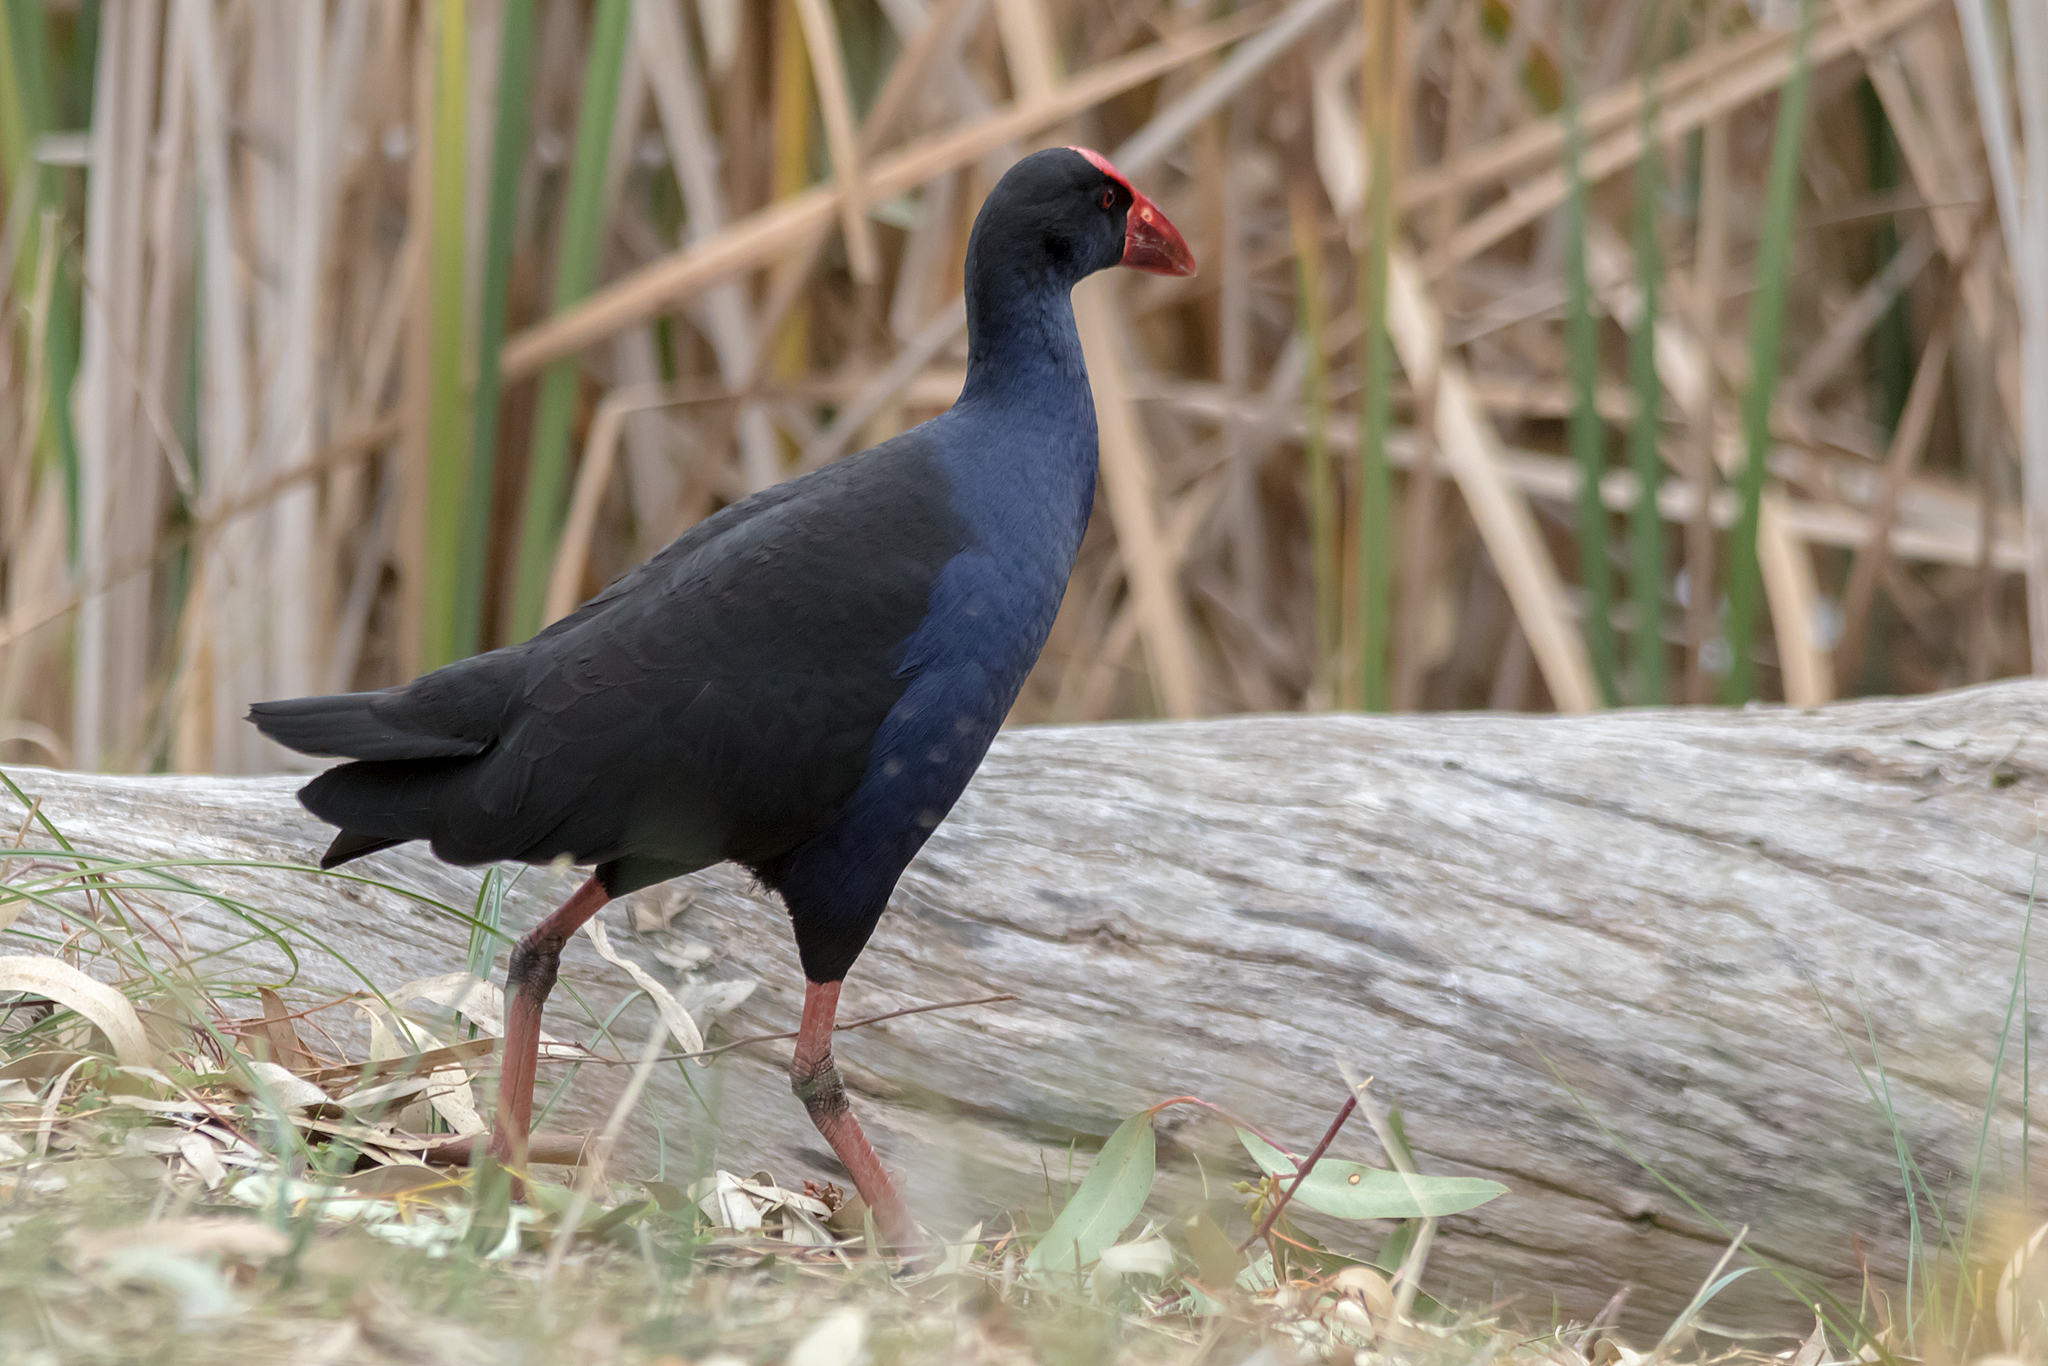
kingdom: Animalia
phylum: Chordata
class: Aves
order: Gruiformes
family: Rallidae
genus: Porphyrio
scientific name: Porphyrio melanotus
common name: Australasian swamphen
